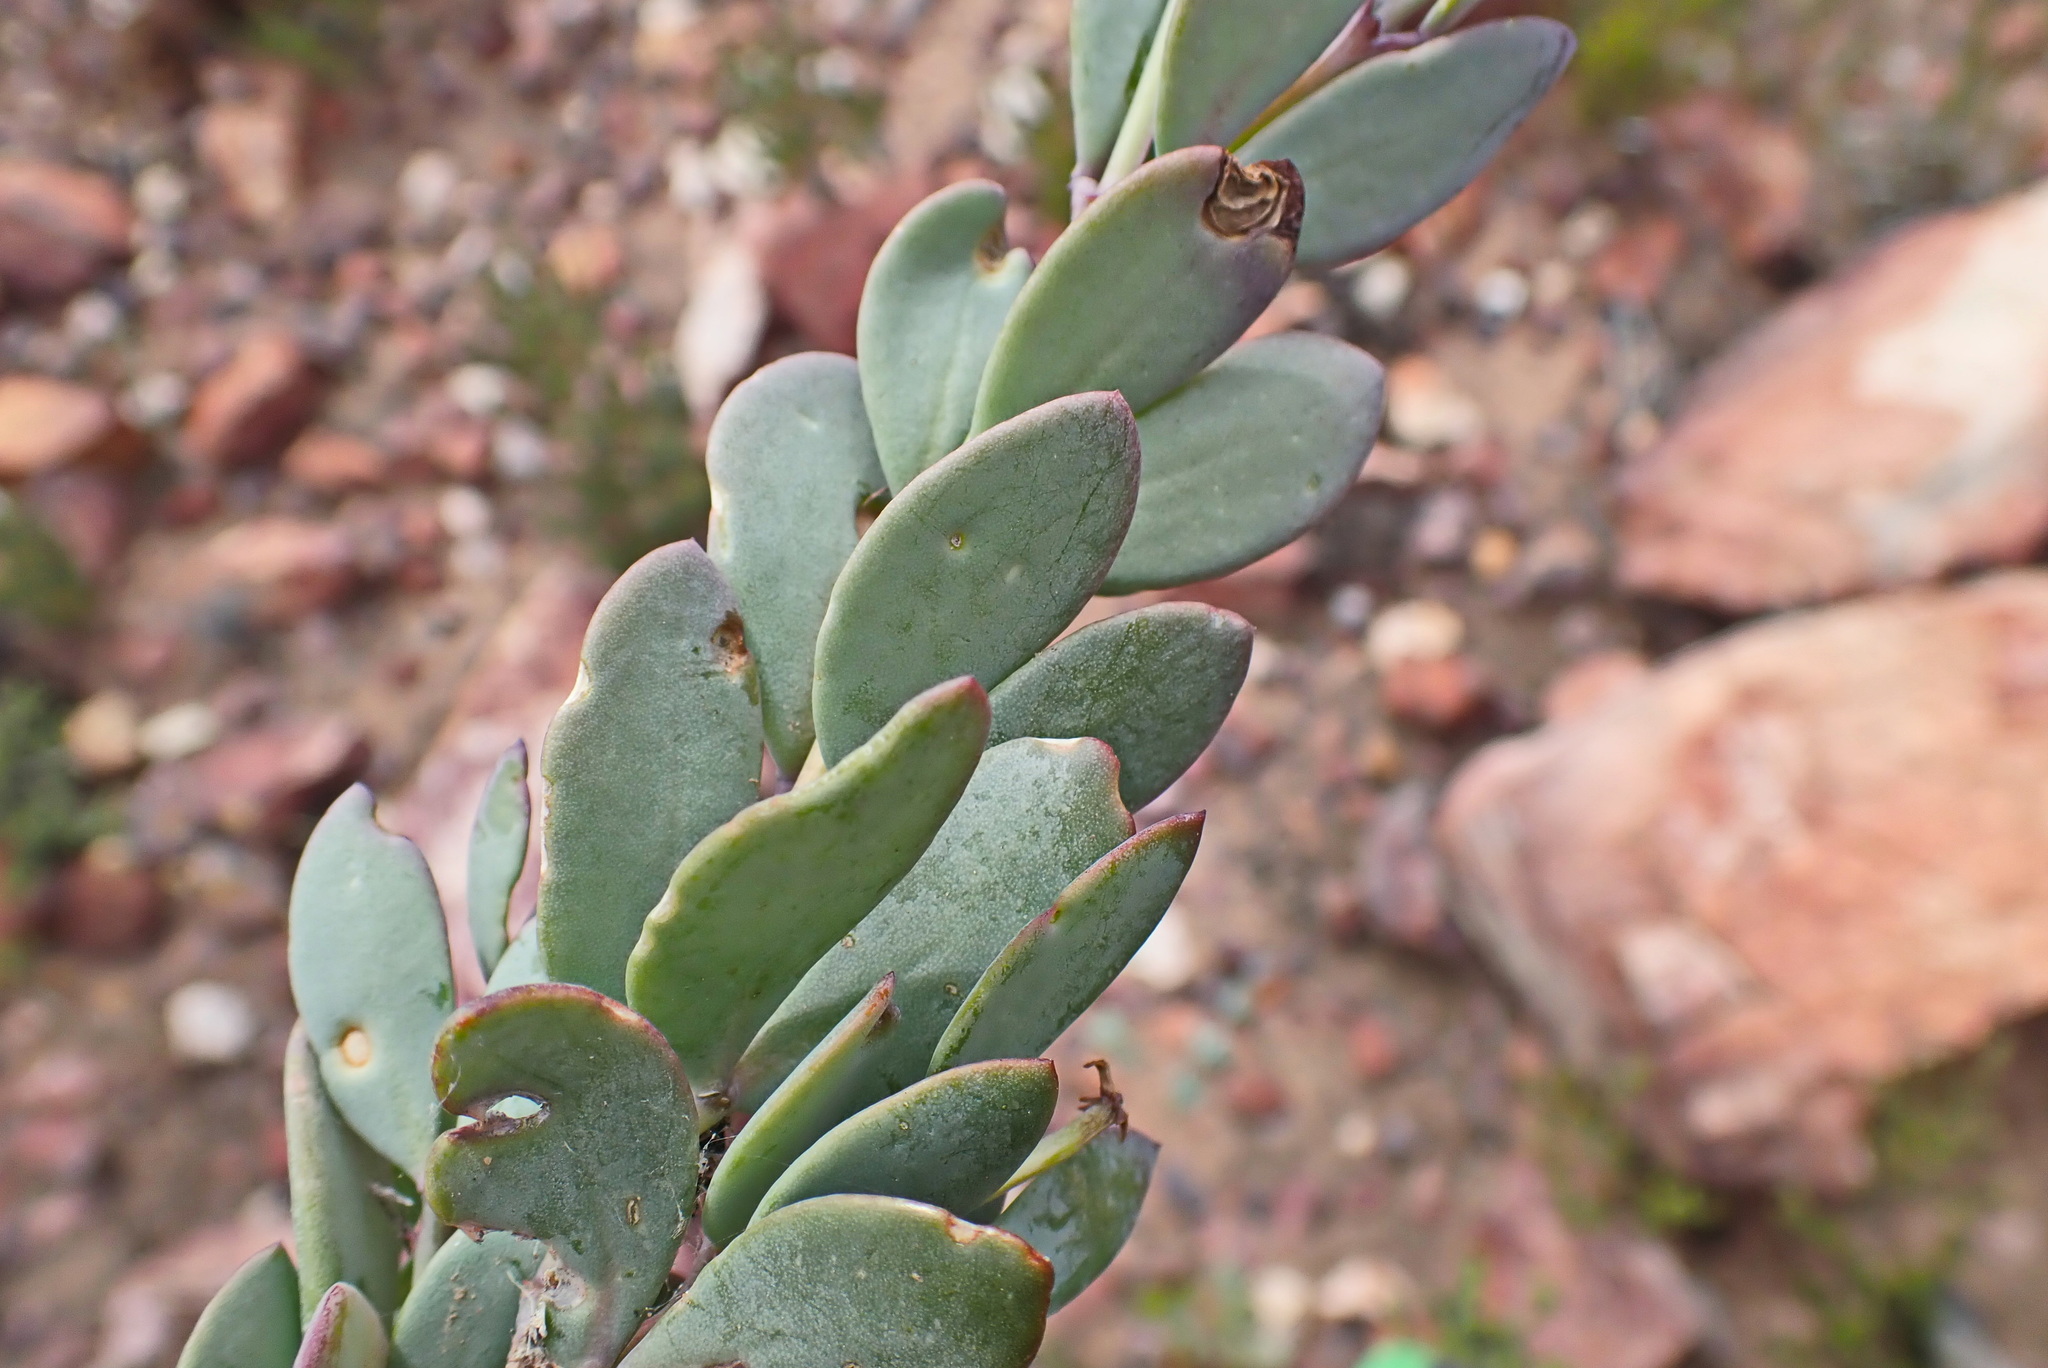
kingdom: Plantae
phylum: Tracheophyta
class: Magnoliopsida
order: Zygophyllales
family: Zygophyllaceae
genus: Roepera
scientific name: Roepera fulva
